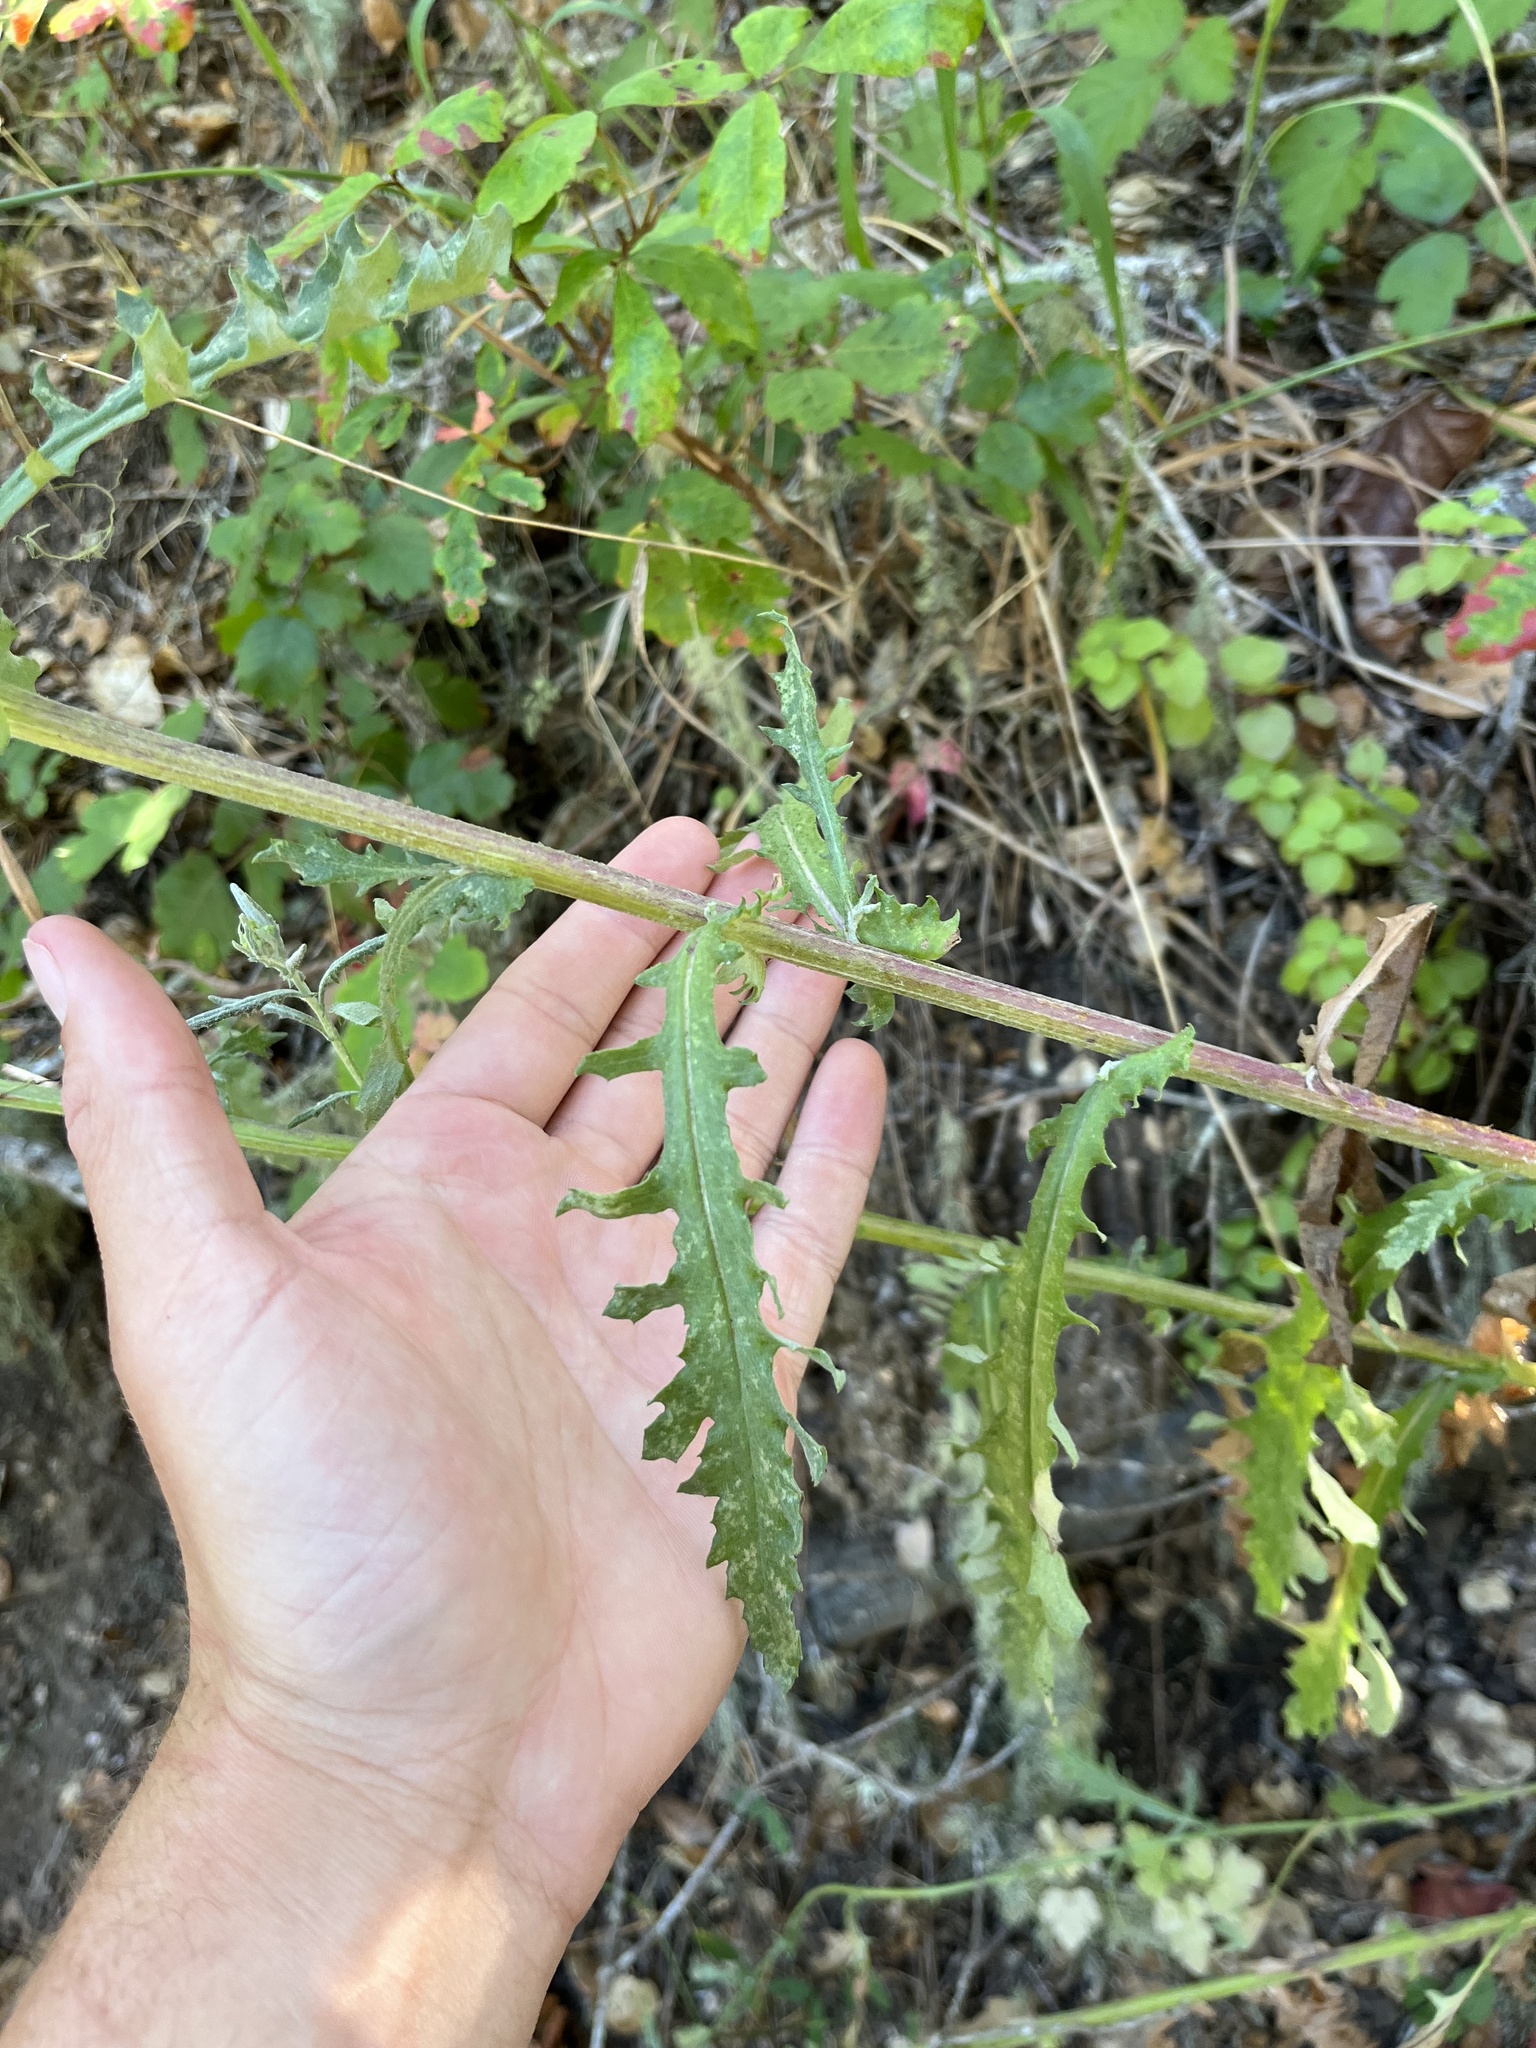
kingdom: Plantae
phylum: Tracheophyta
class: Magnoliopsida
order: Asterales
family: Asteraceae
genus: Senecio
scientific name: Senecio glomeratus
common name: Cutleaf burnweed
